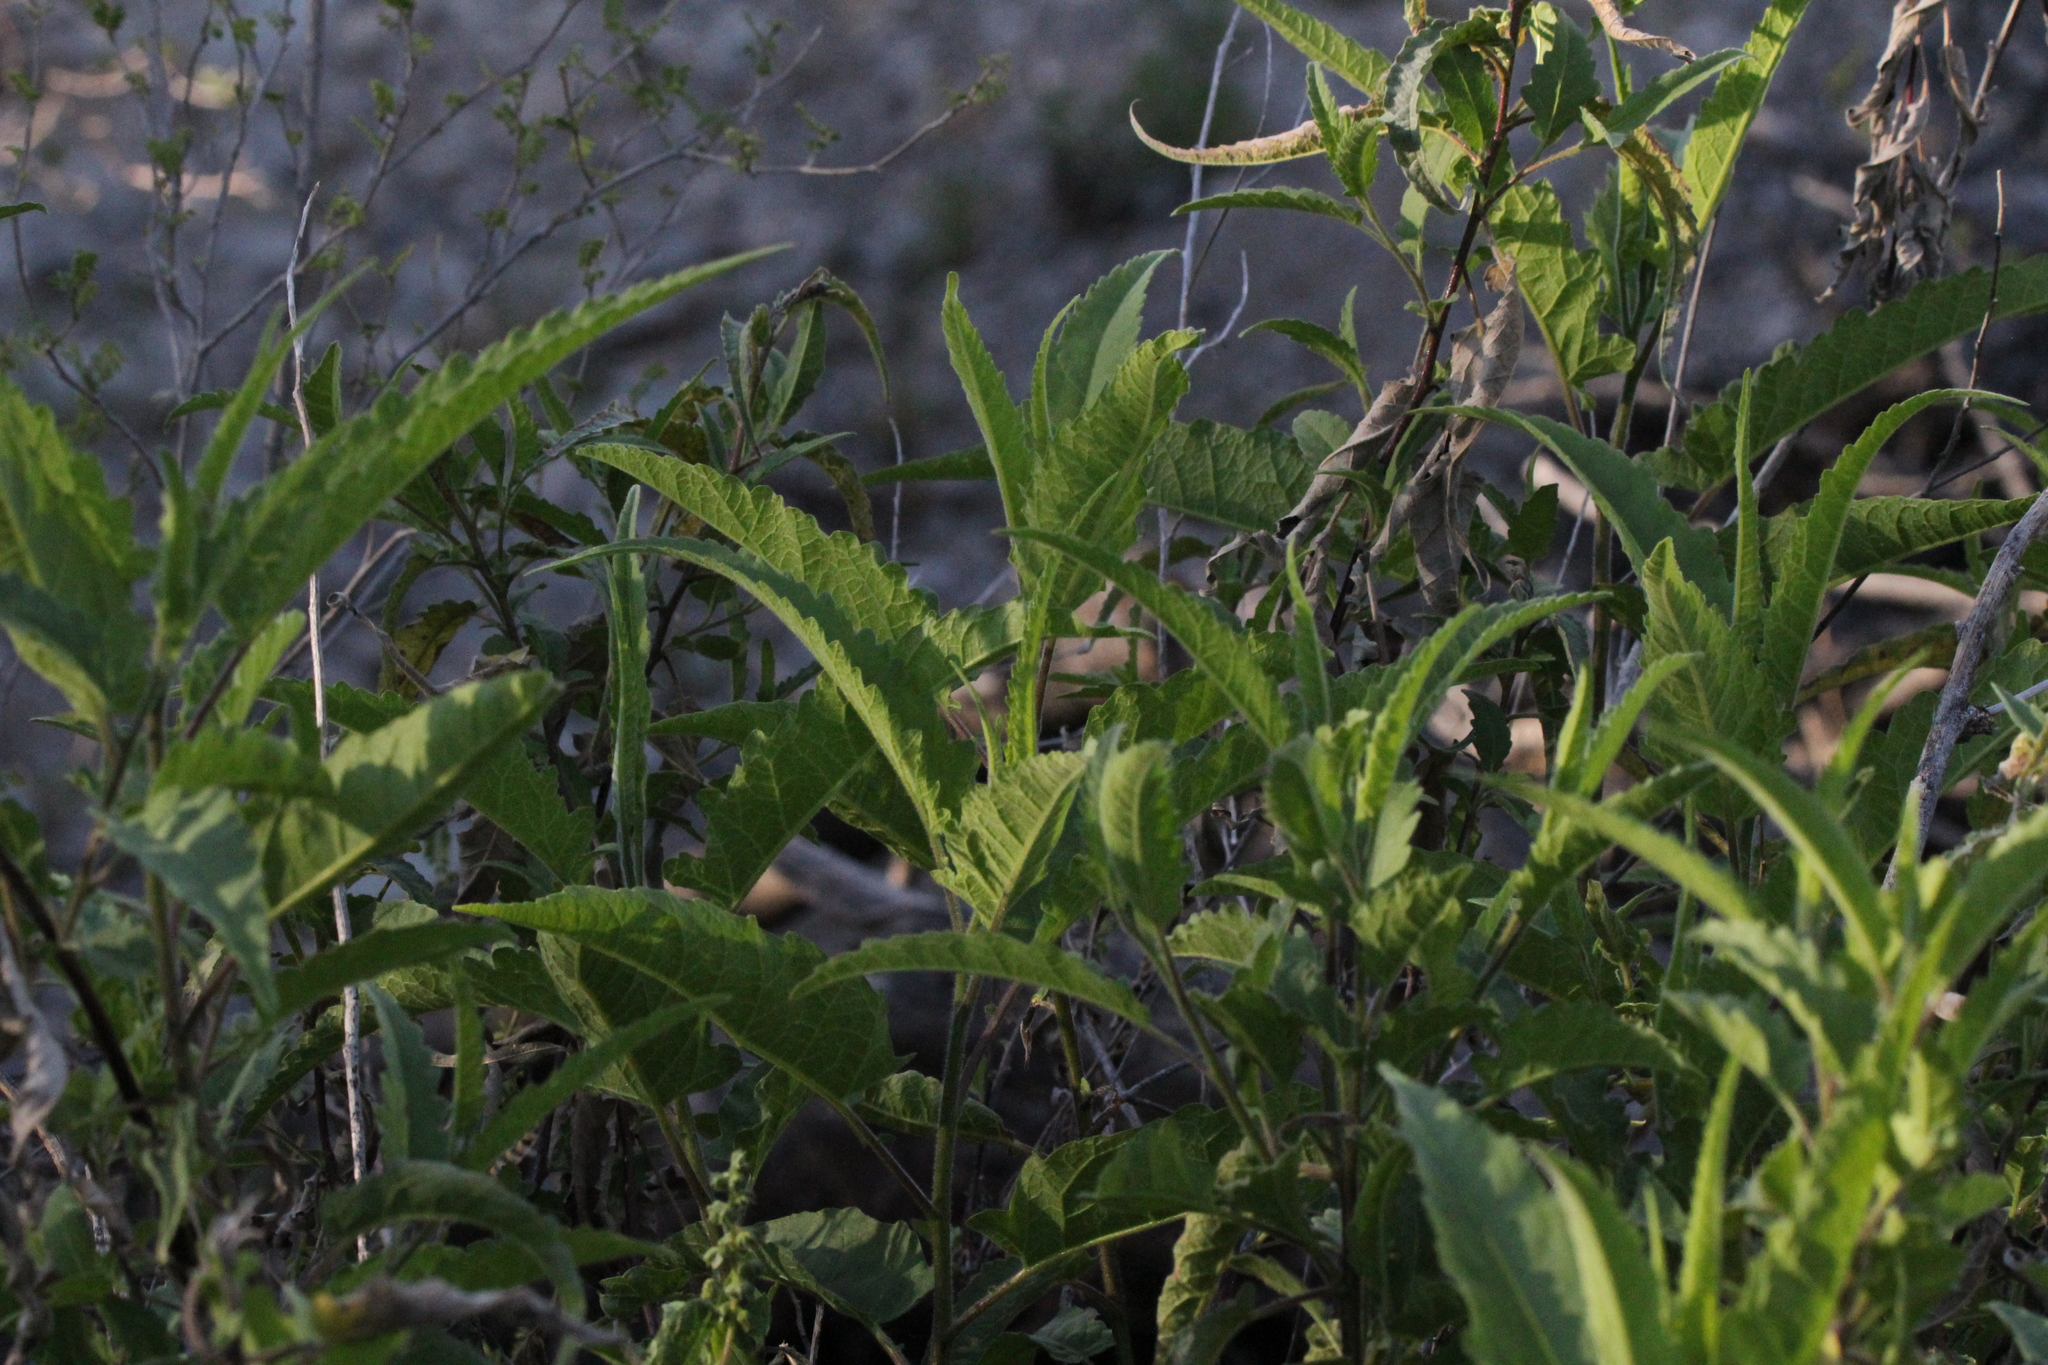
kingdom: Plantae
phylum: Tracheophyta
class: Magnoliopsida
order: Asterales
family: Asteraceae
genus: Ambrosia
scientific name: Ambrosia ambrosioides
